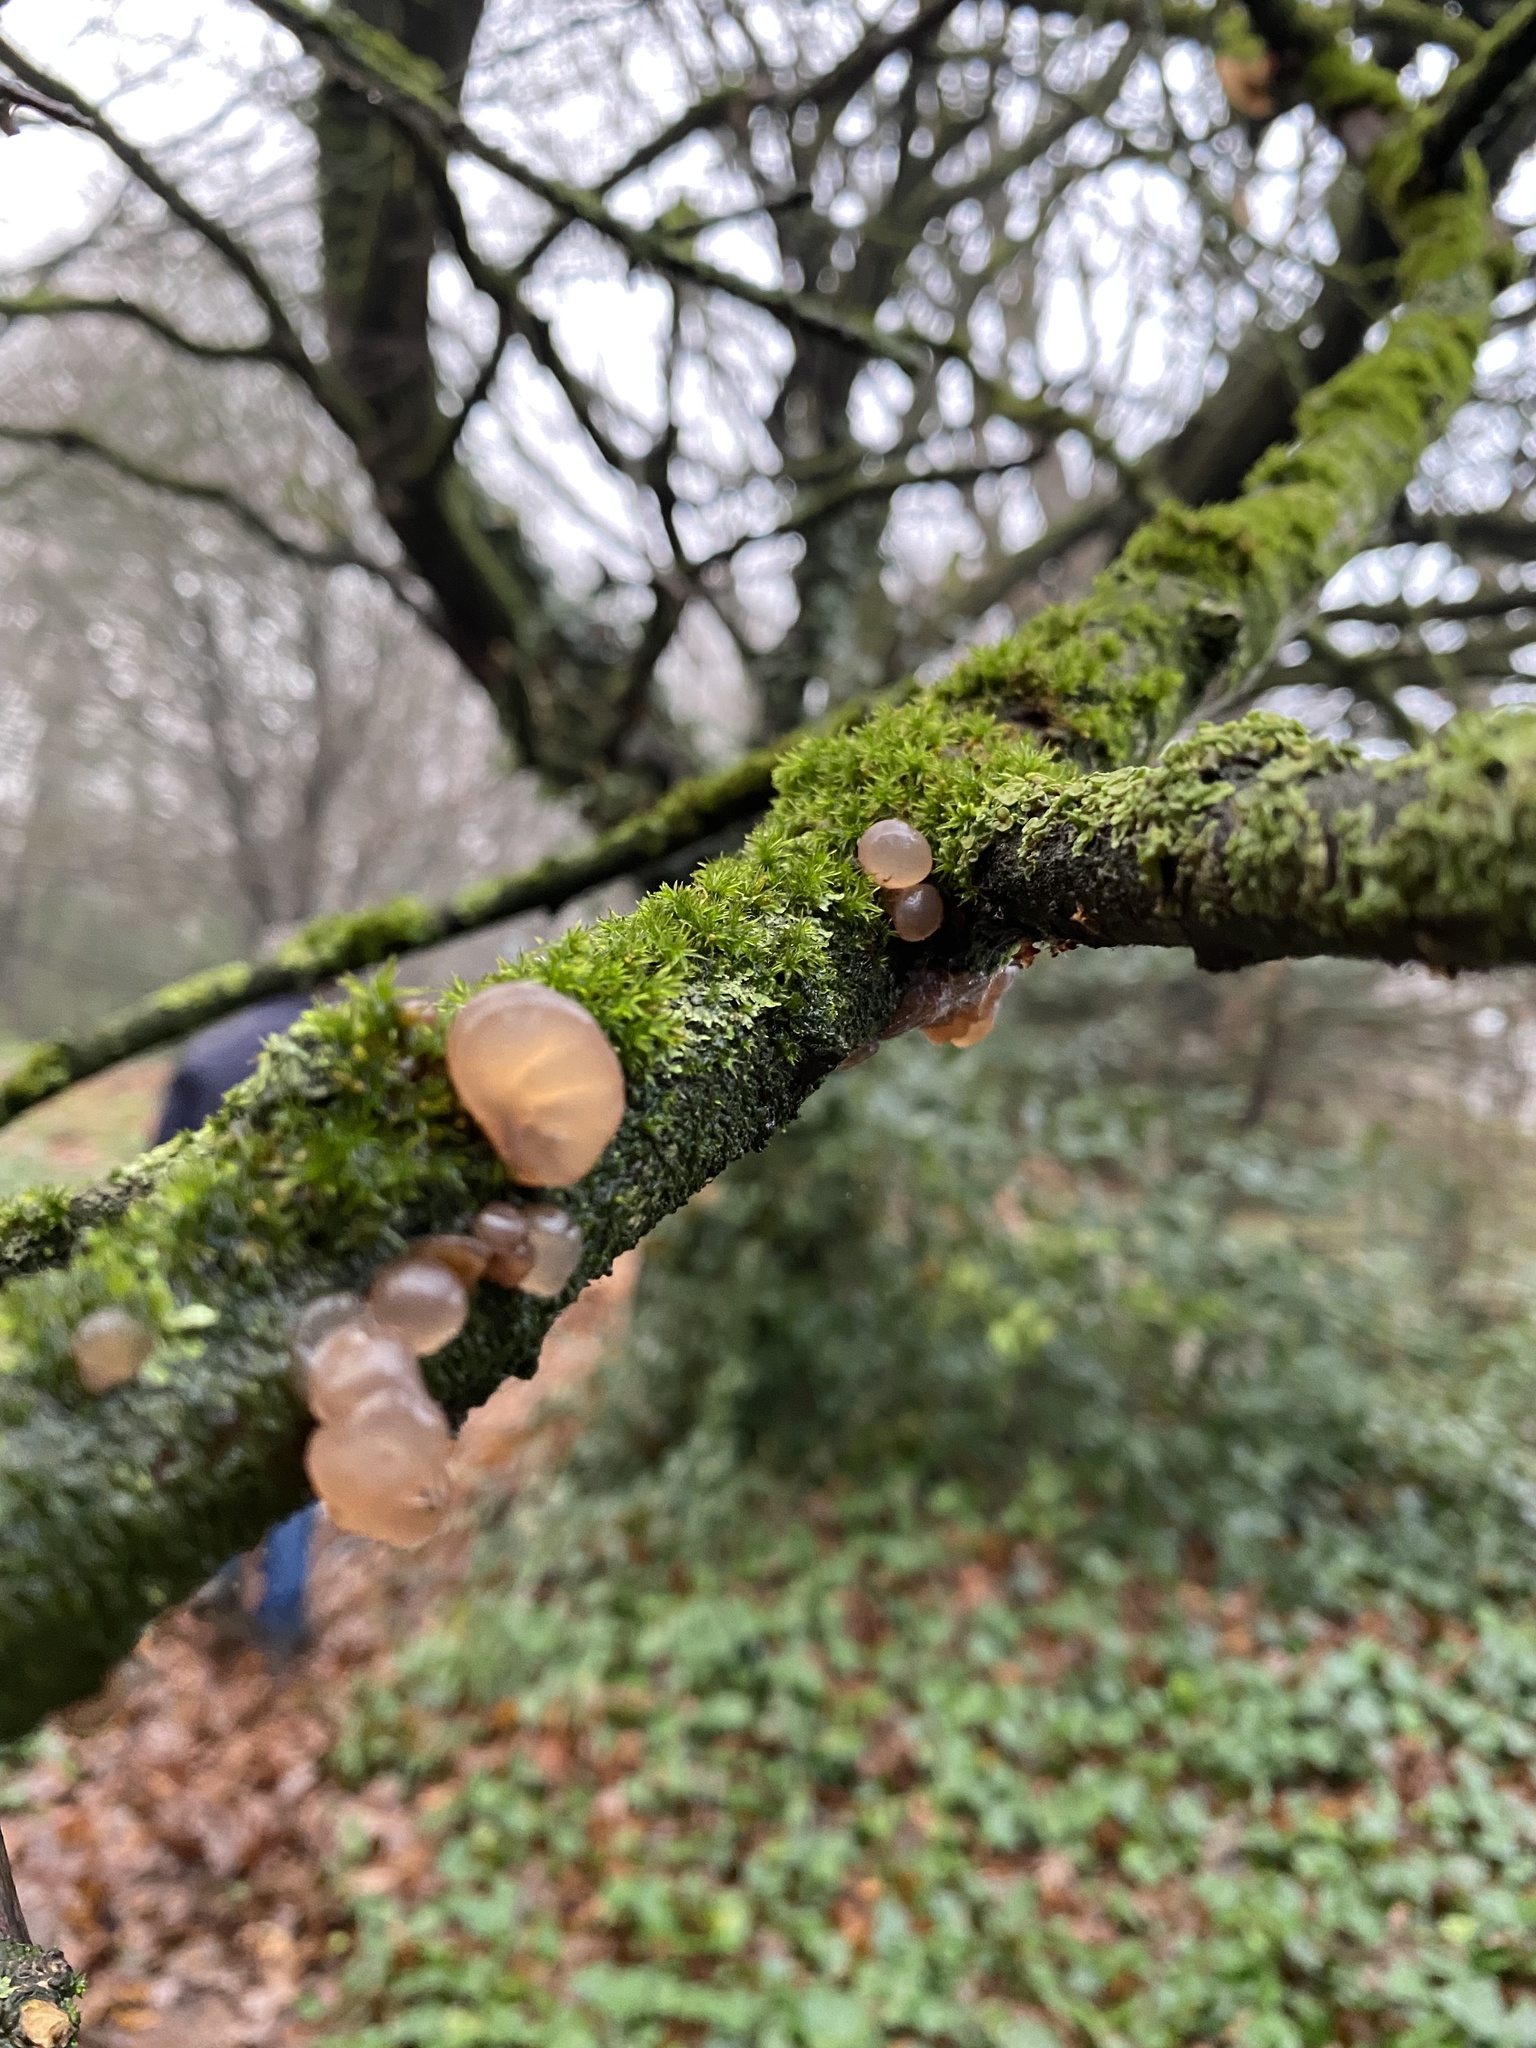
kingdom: Fungi
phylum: Basidiomycota
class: Agaricomycetes
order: Auriculariales
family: Auriculariaceae
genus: Auricularia
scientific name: Auricularia auricula-judae
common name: Jelly ear
